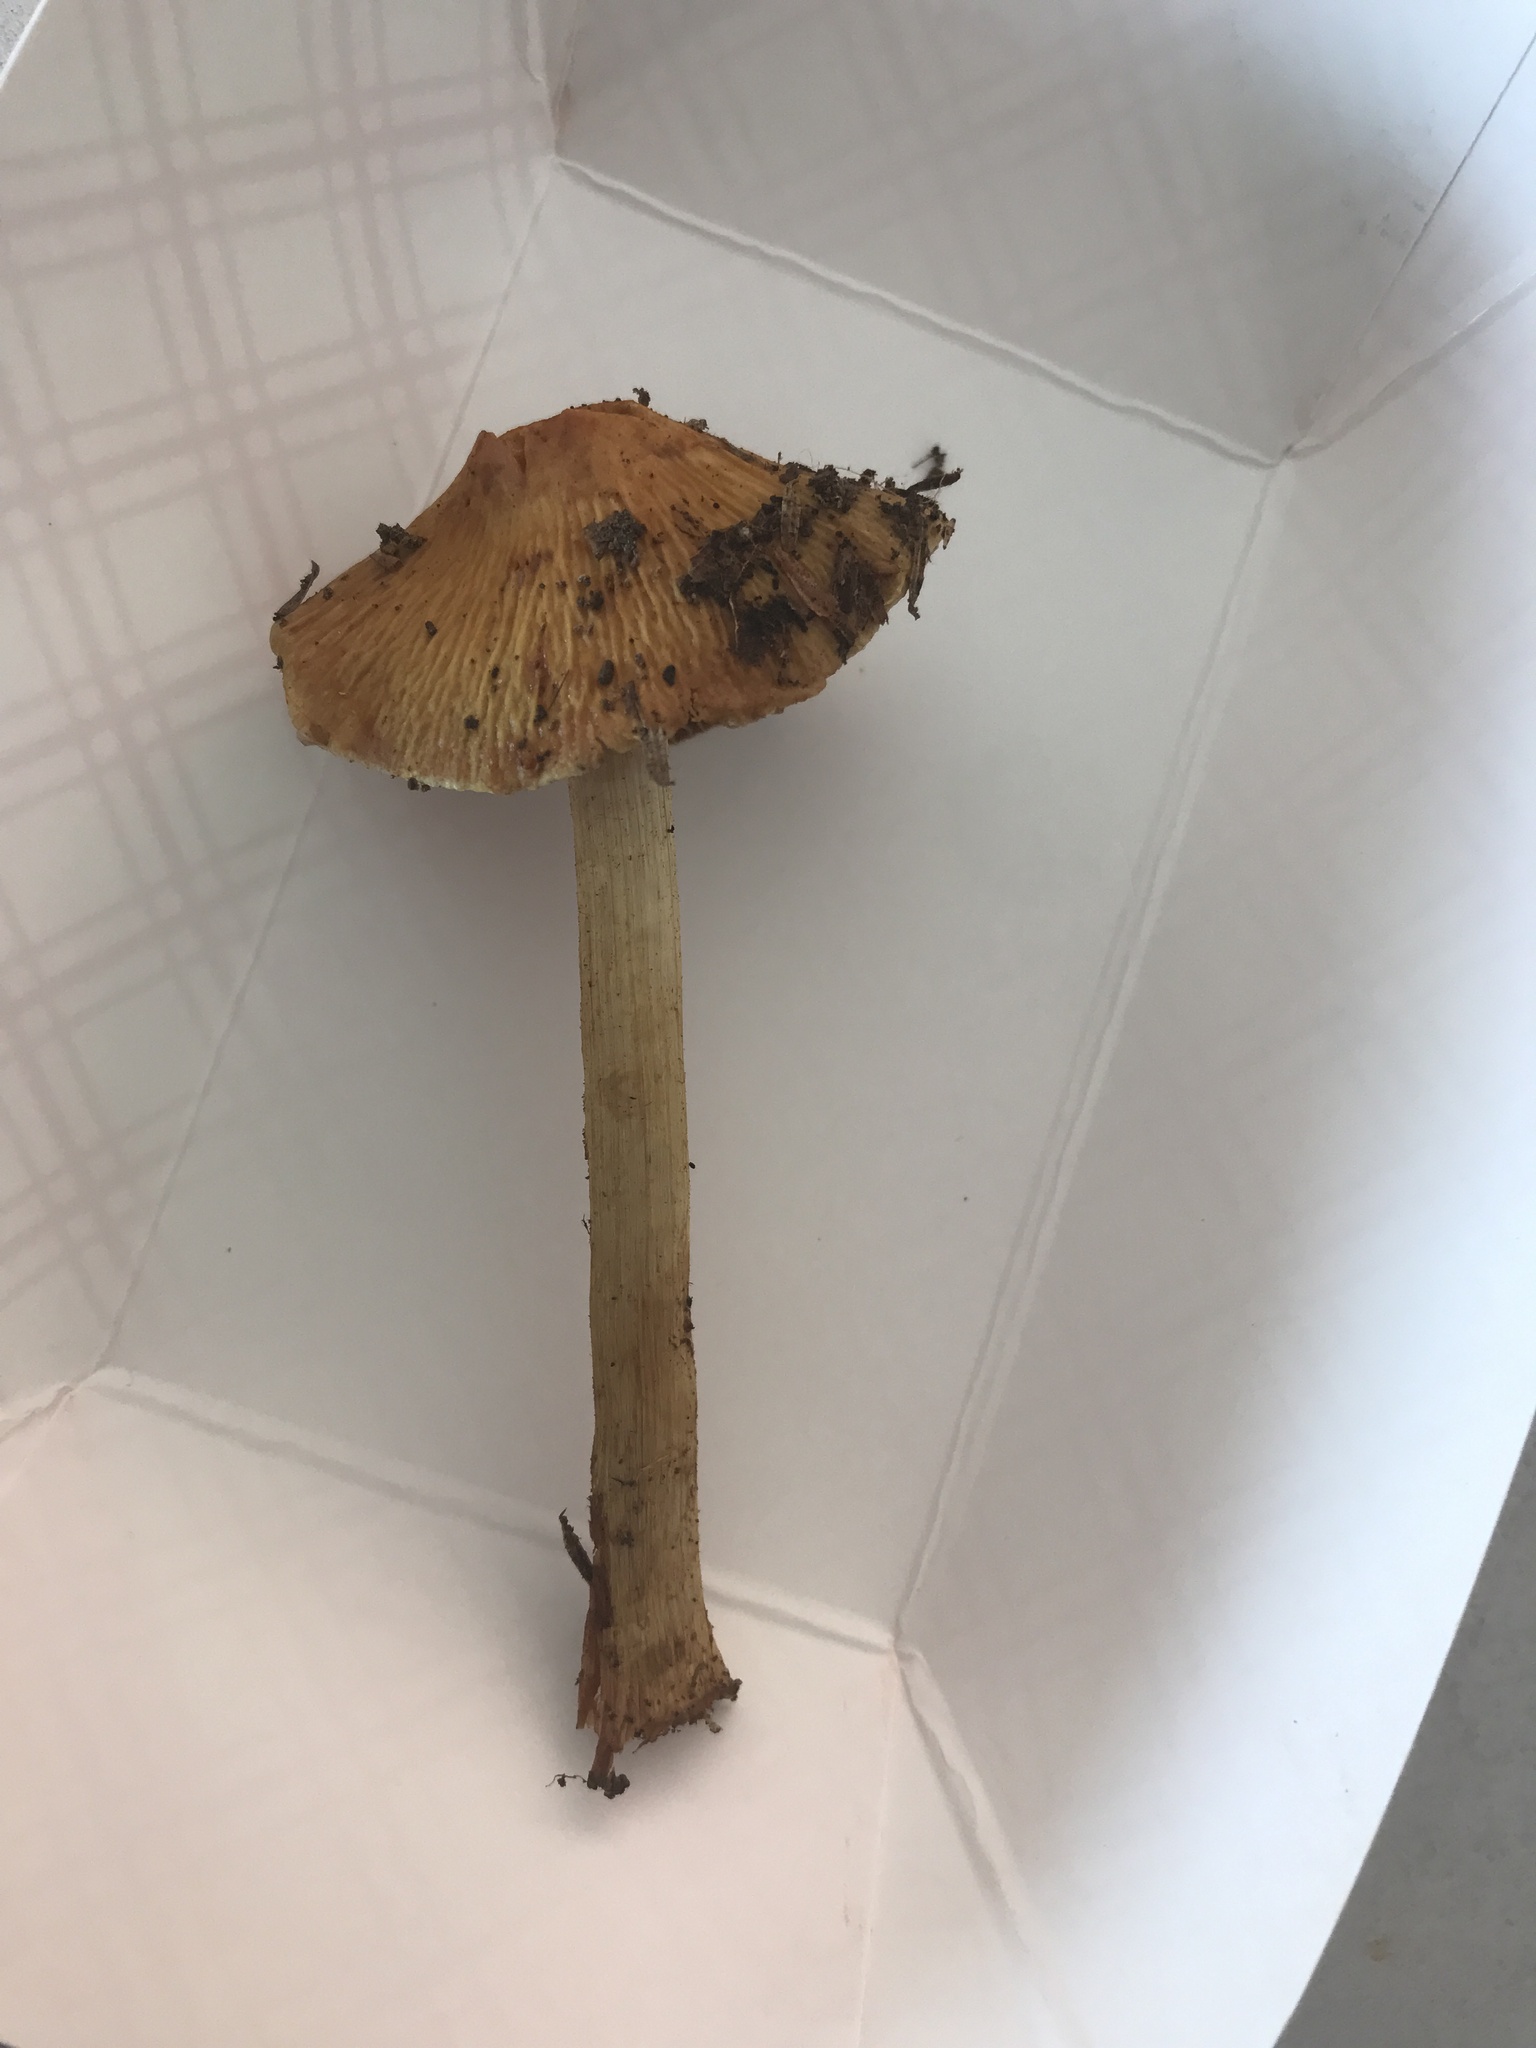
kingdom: Fungi
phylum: Basidiomycota
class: Agaricomycetes
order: Agaricales
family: Cortinariaceae
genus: Cortinarius
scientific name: Cortinarius corrugatus
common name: Wrinkled cortinarius
